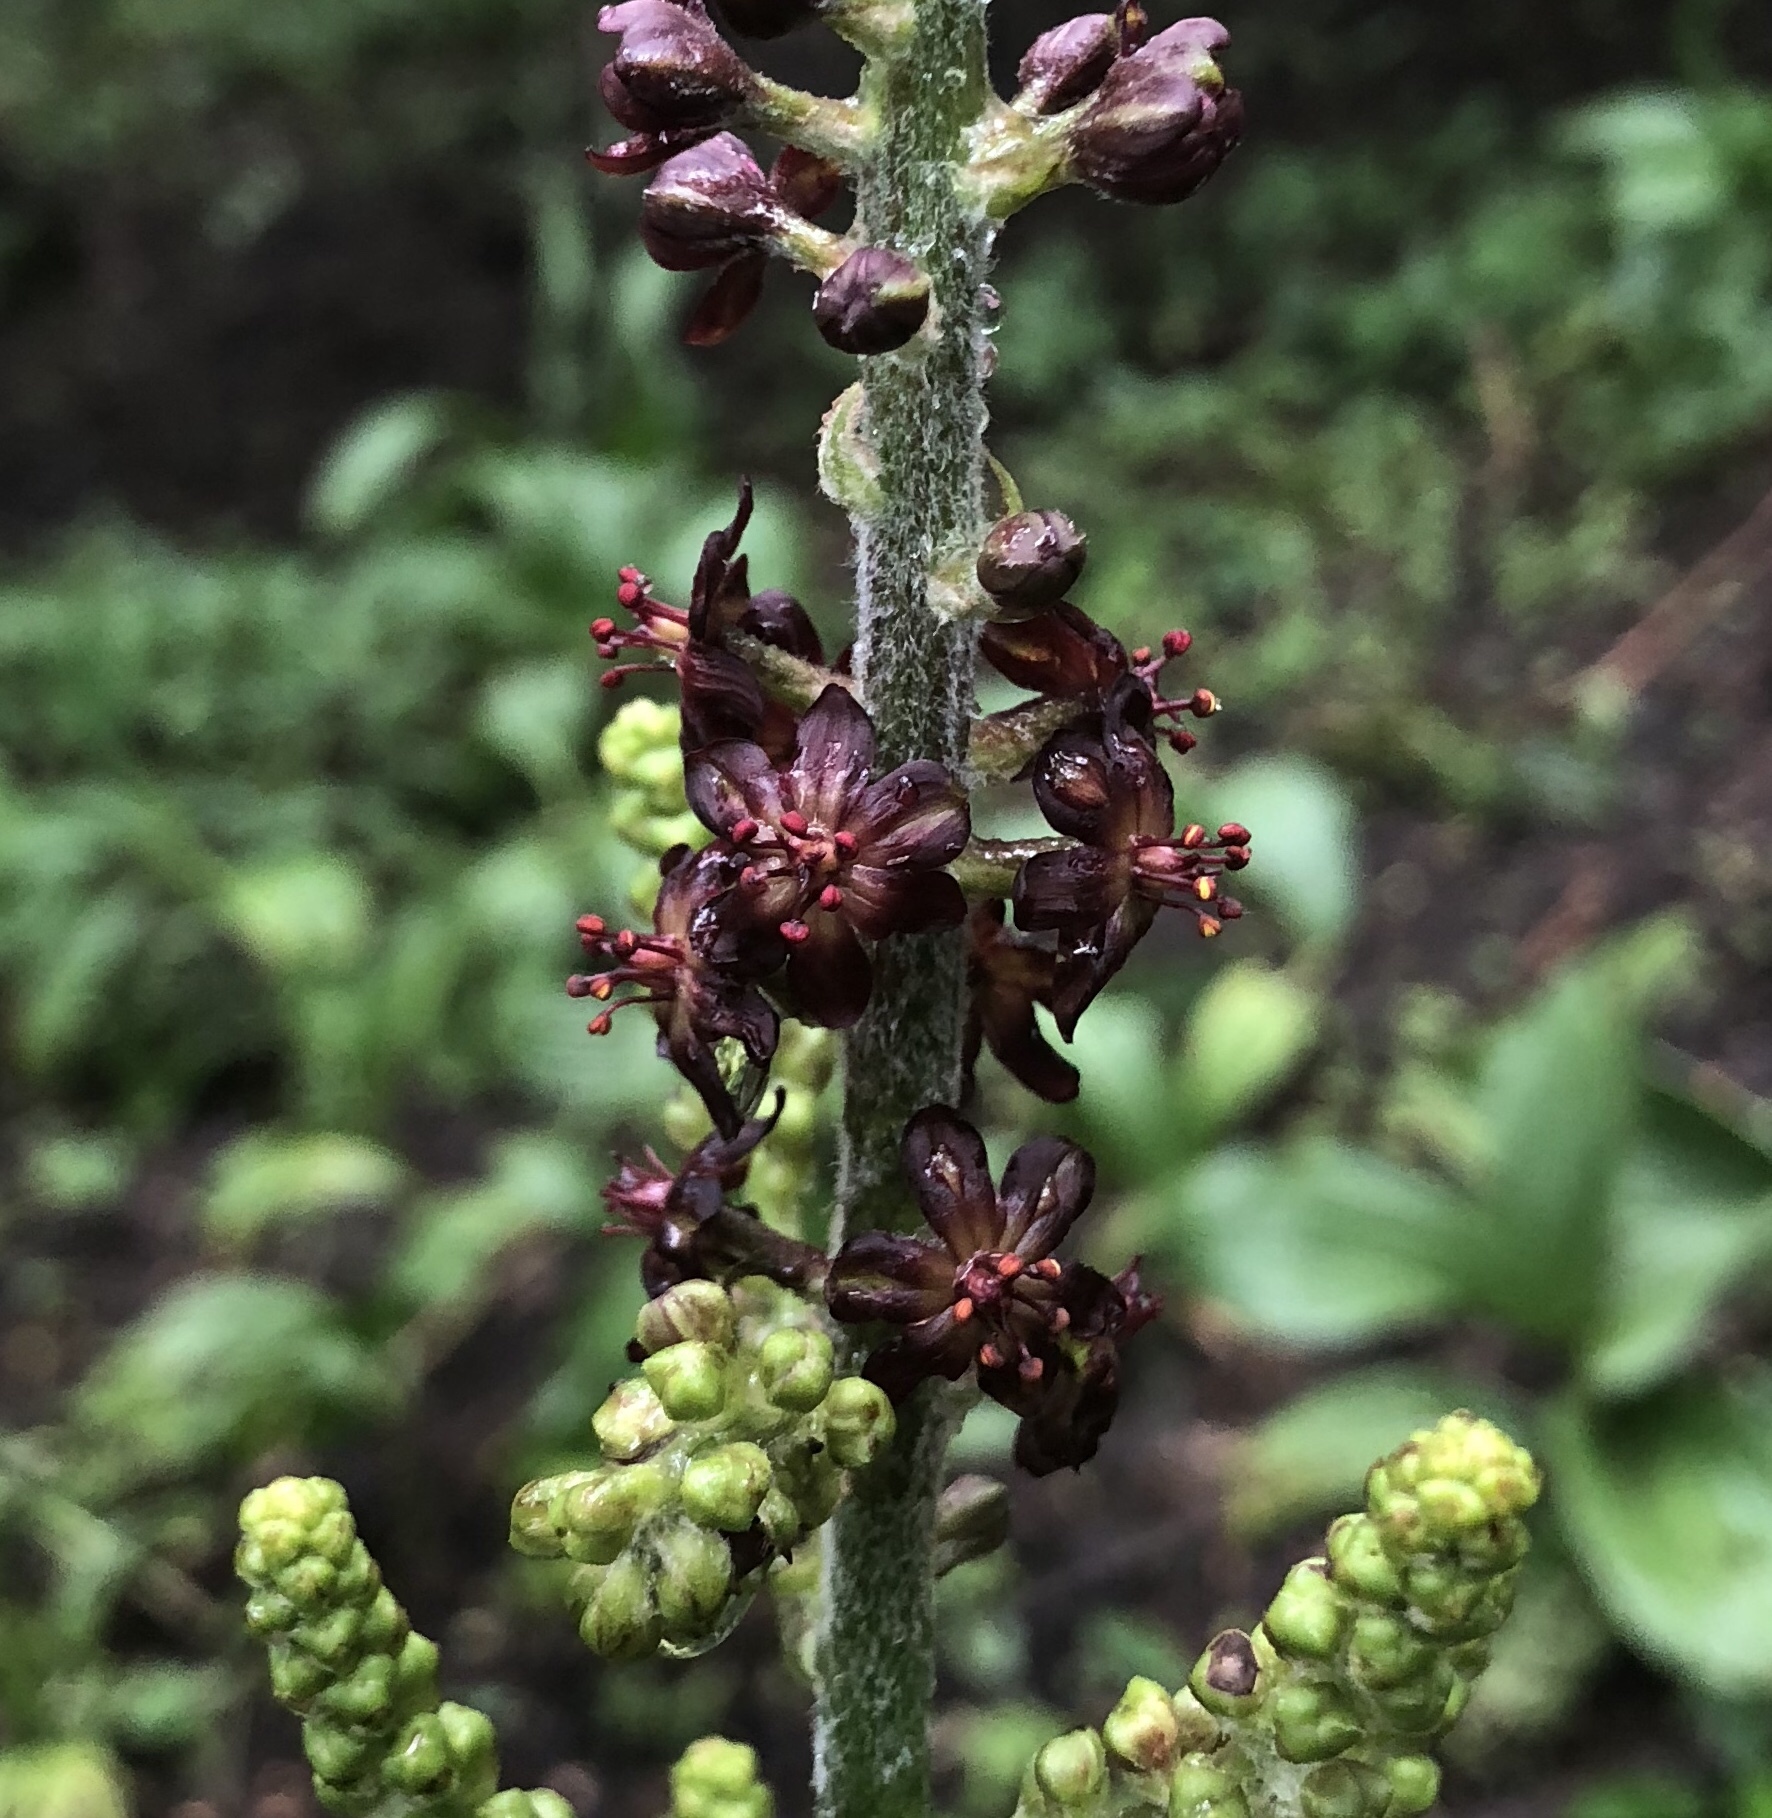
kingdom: Plantae
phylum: Tracheophyta
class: Liliopsida
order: Liliales
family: Melanthiaceae
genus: Veratrum
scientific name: Veratrum nigrum
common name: Black veratrum
